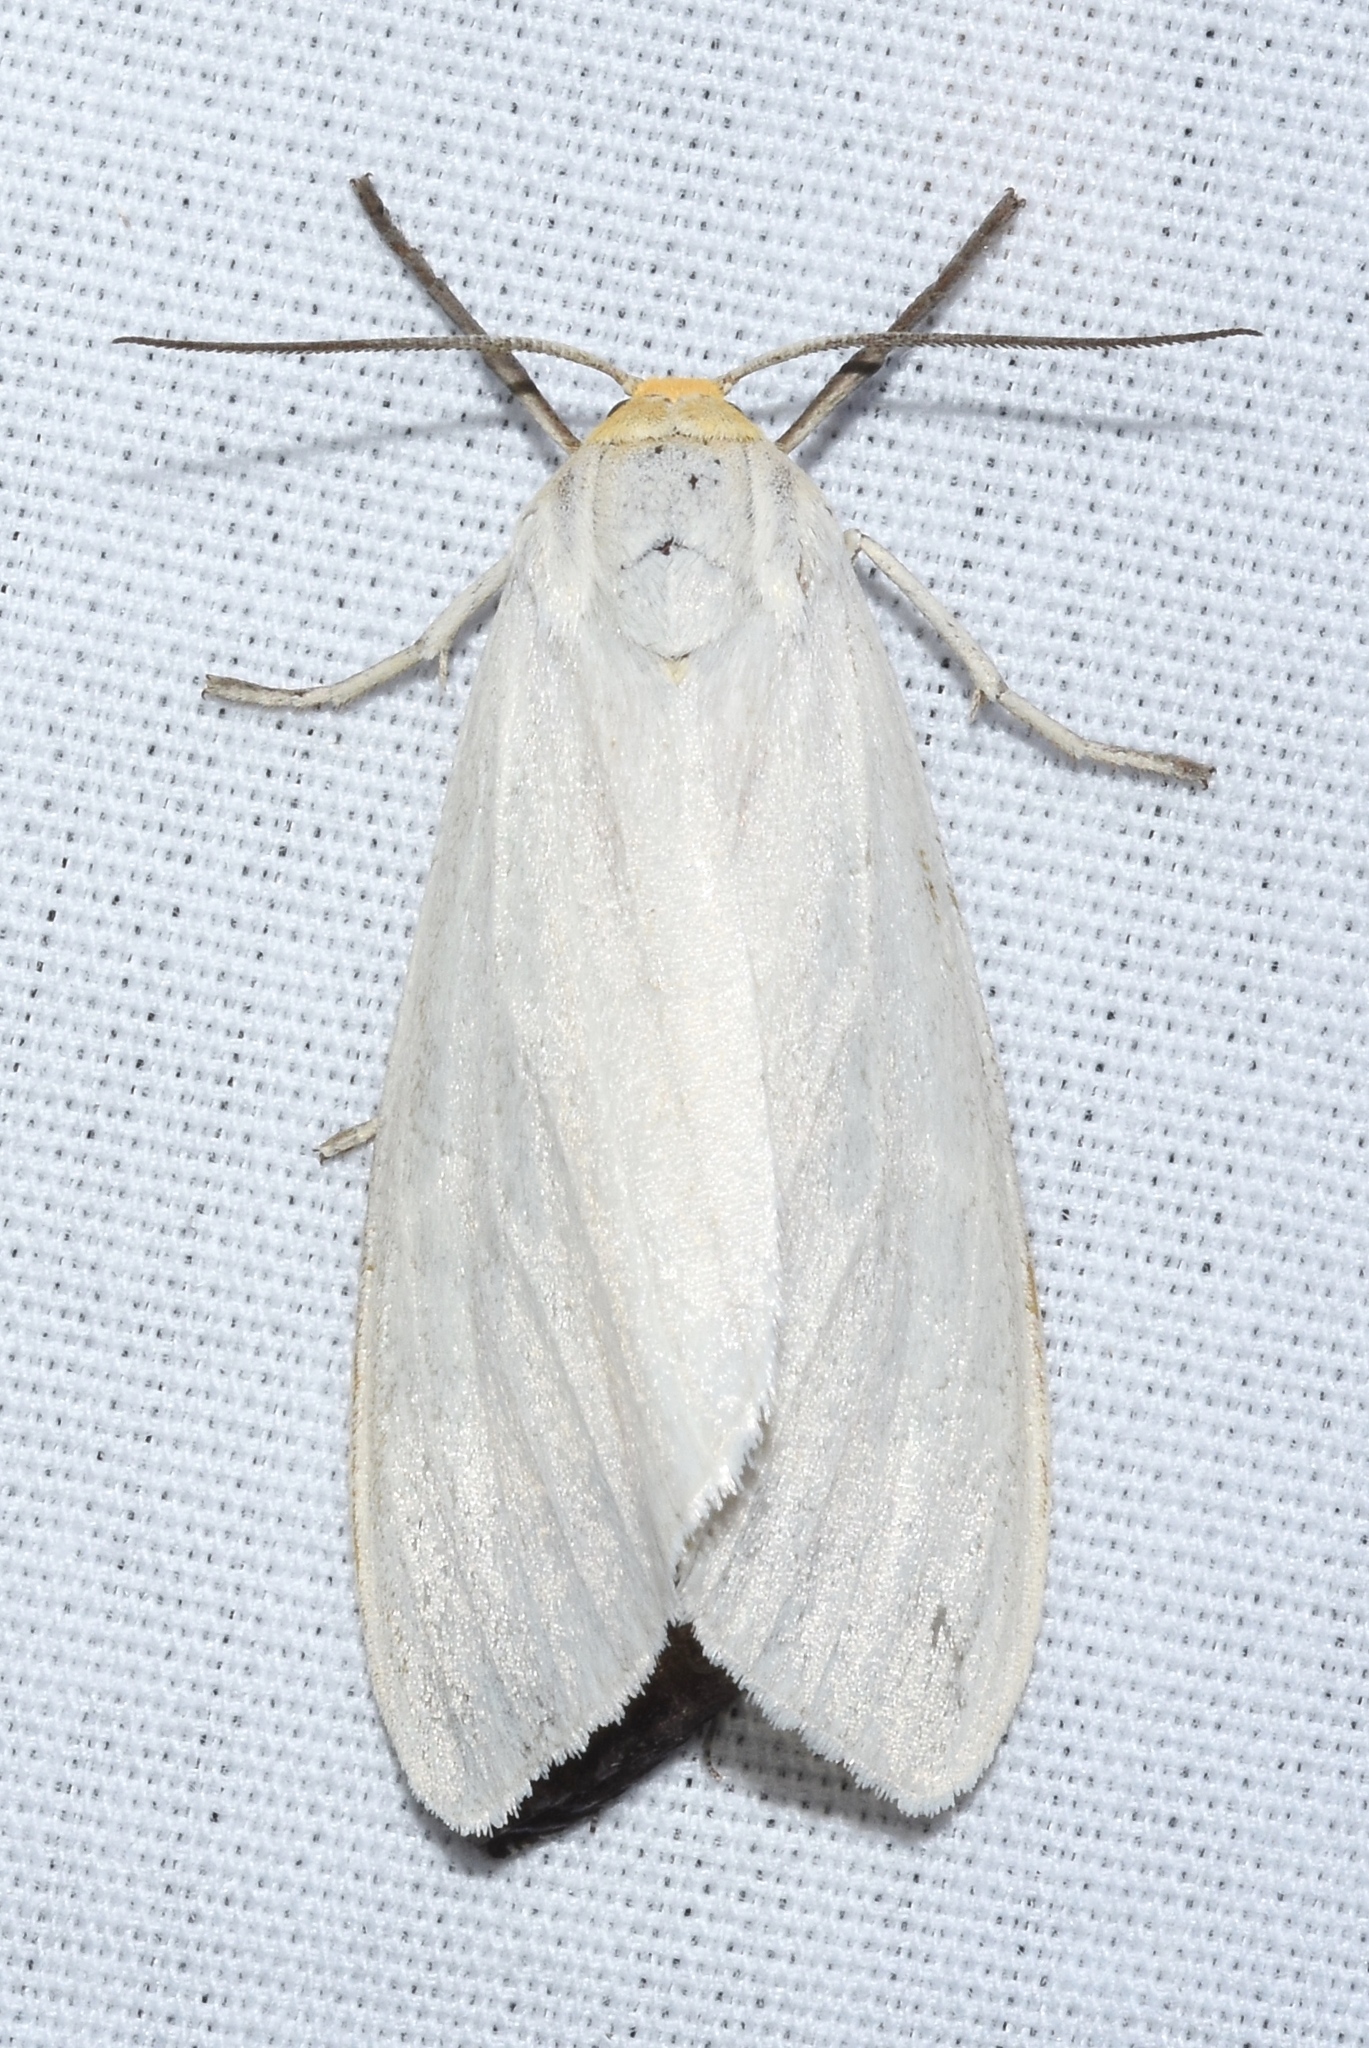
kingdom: Animalia
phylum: Arthropoda
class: Insecta
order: Lepidoptera
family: Erebidae
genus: Cycnia
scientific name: Cycnia oregonensis
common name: Oregon cycnia moth
